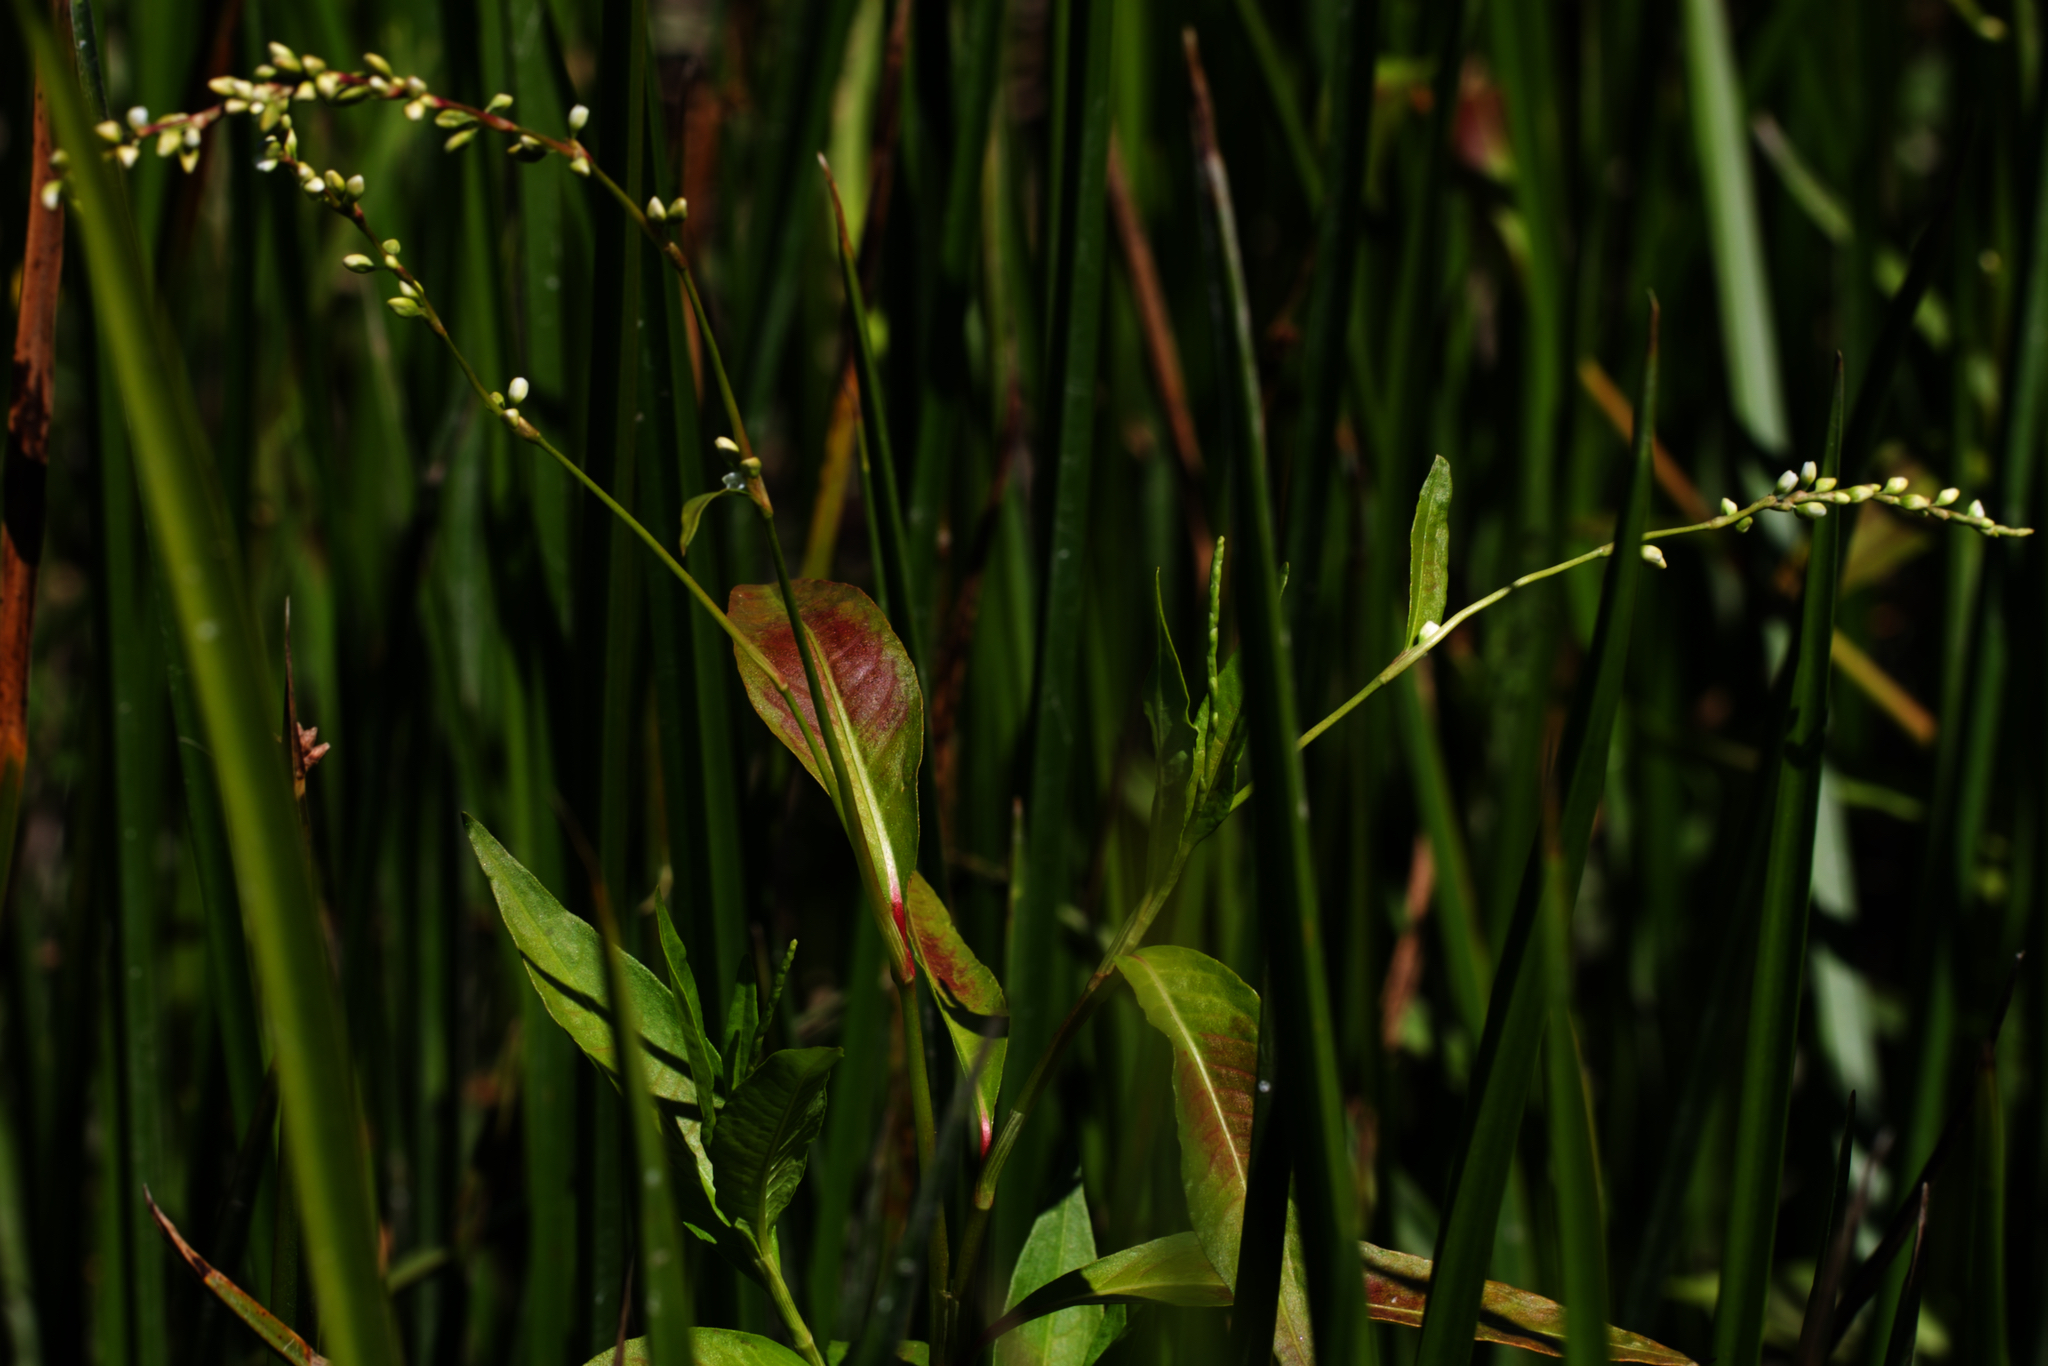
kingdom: Plantae
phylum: Tracheophyta
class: Magnoliopsida
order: Caryophyllales
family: Polygonaceae
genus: Persicaria
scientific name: Persicaria punctata
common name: Dotted smartweed
